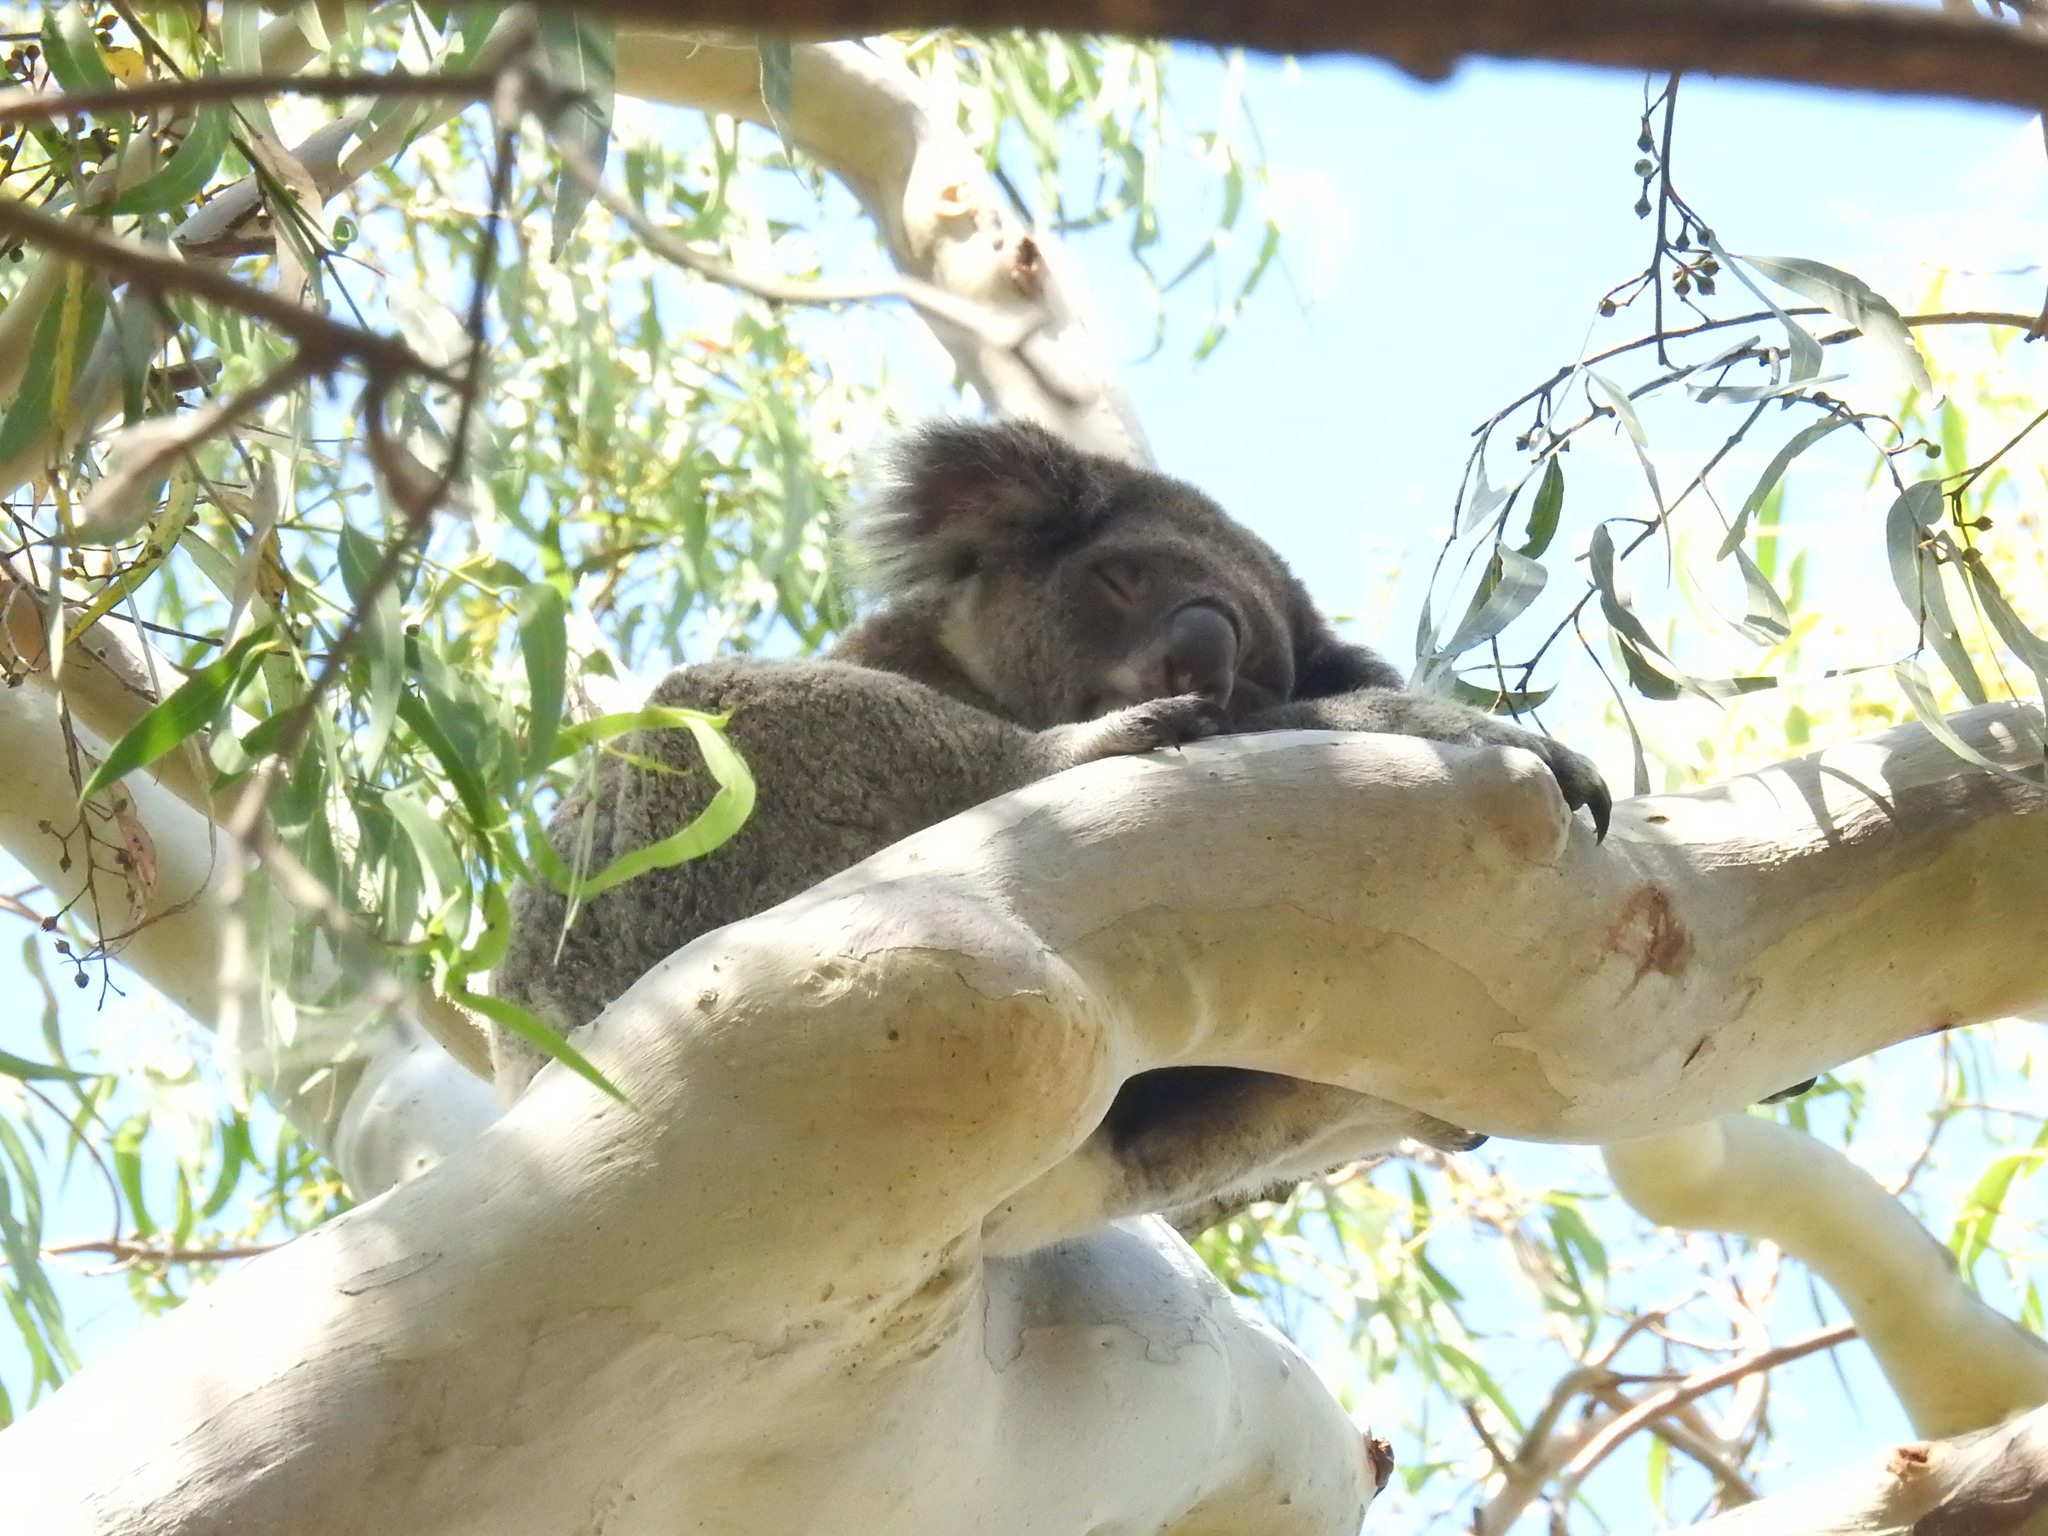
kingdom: Animalia
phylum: Chordata
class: Mammalia
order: Diprotodontia
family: Phascolarctidae
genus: Phascolarctos
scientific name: Phascolarctos cinereus
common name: Koala
